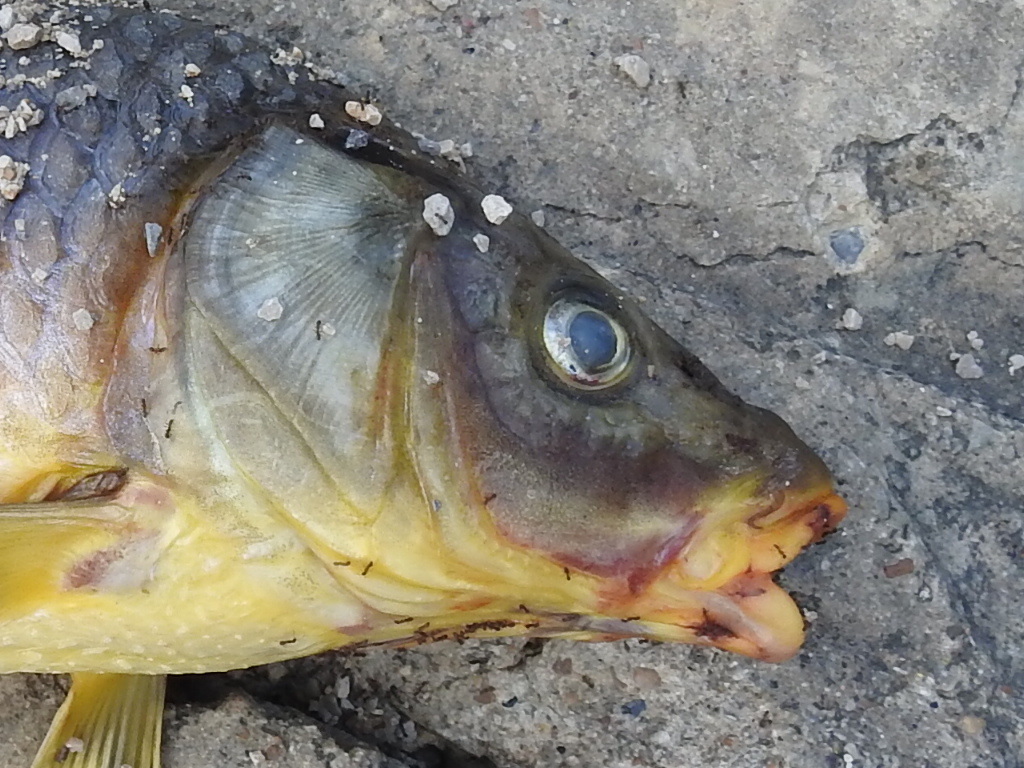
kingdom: Animalia
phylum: Chordata
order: Cypriniformes
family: Cyprinidae
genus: Cyprinus
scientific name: Cyprinus carpio
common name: Common carp
